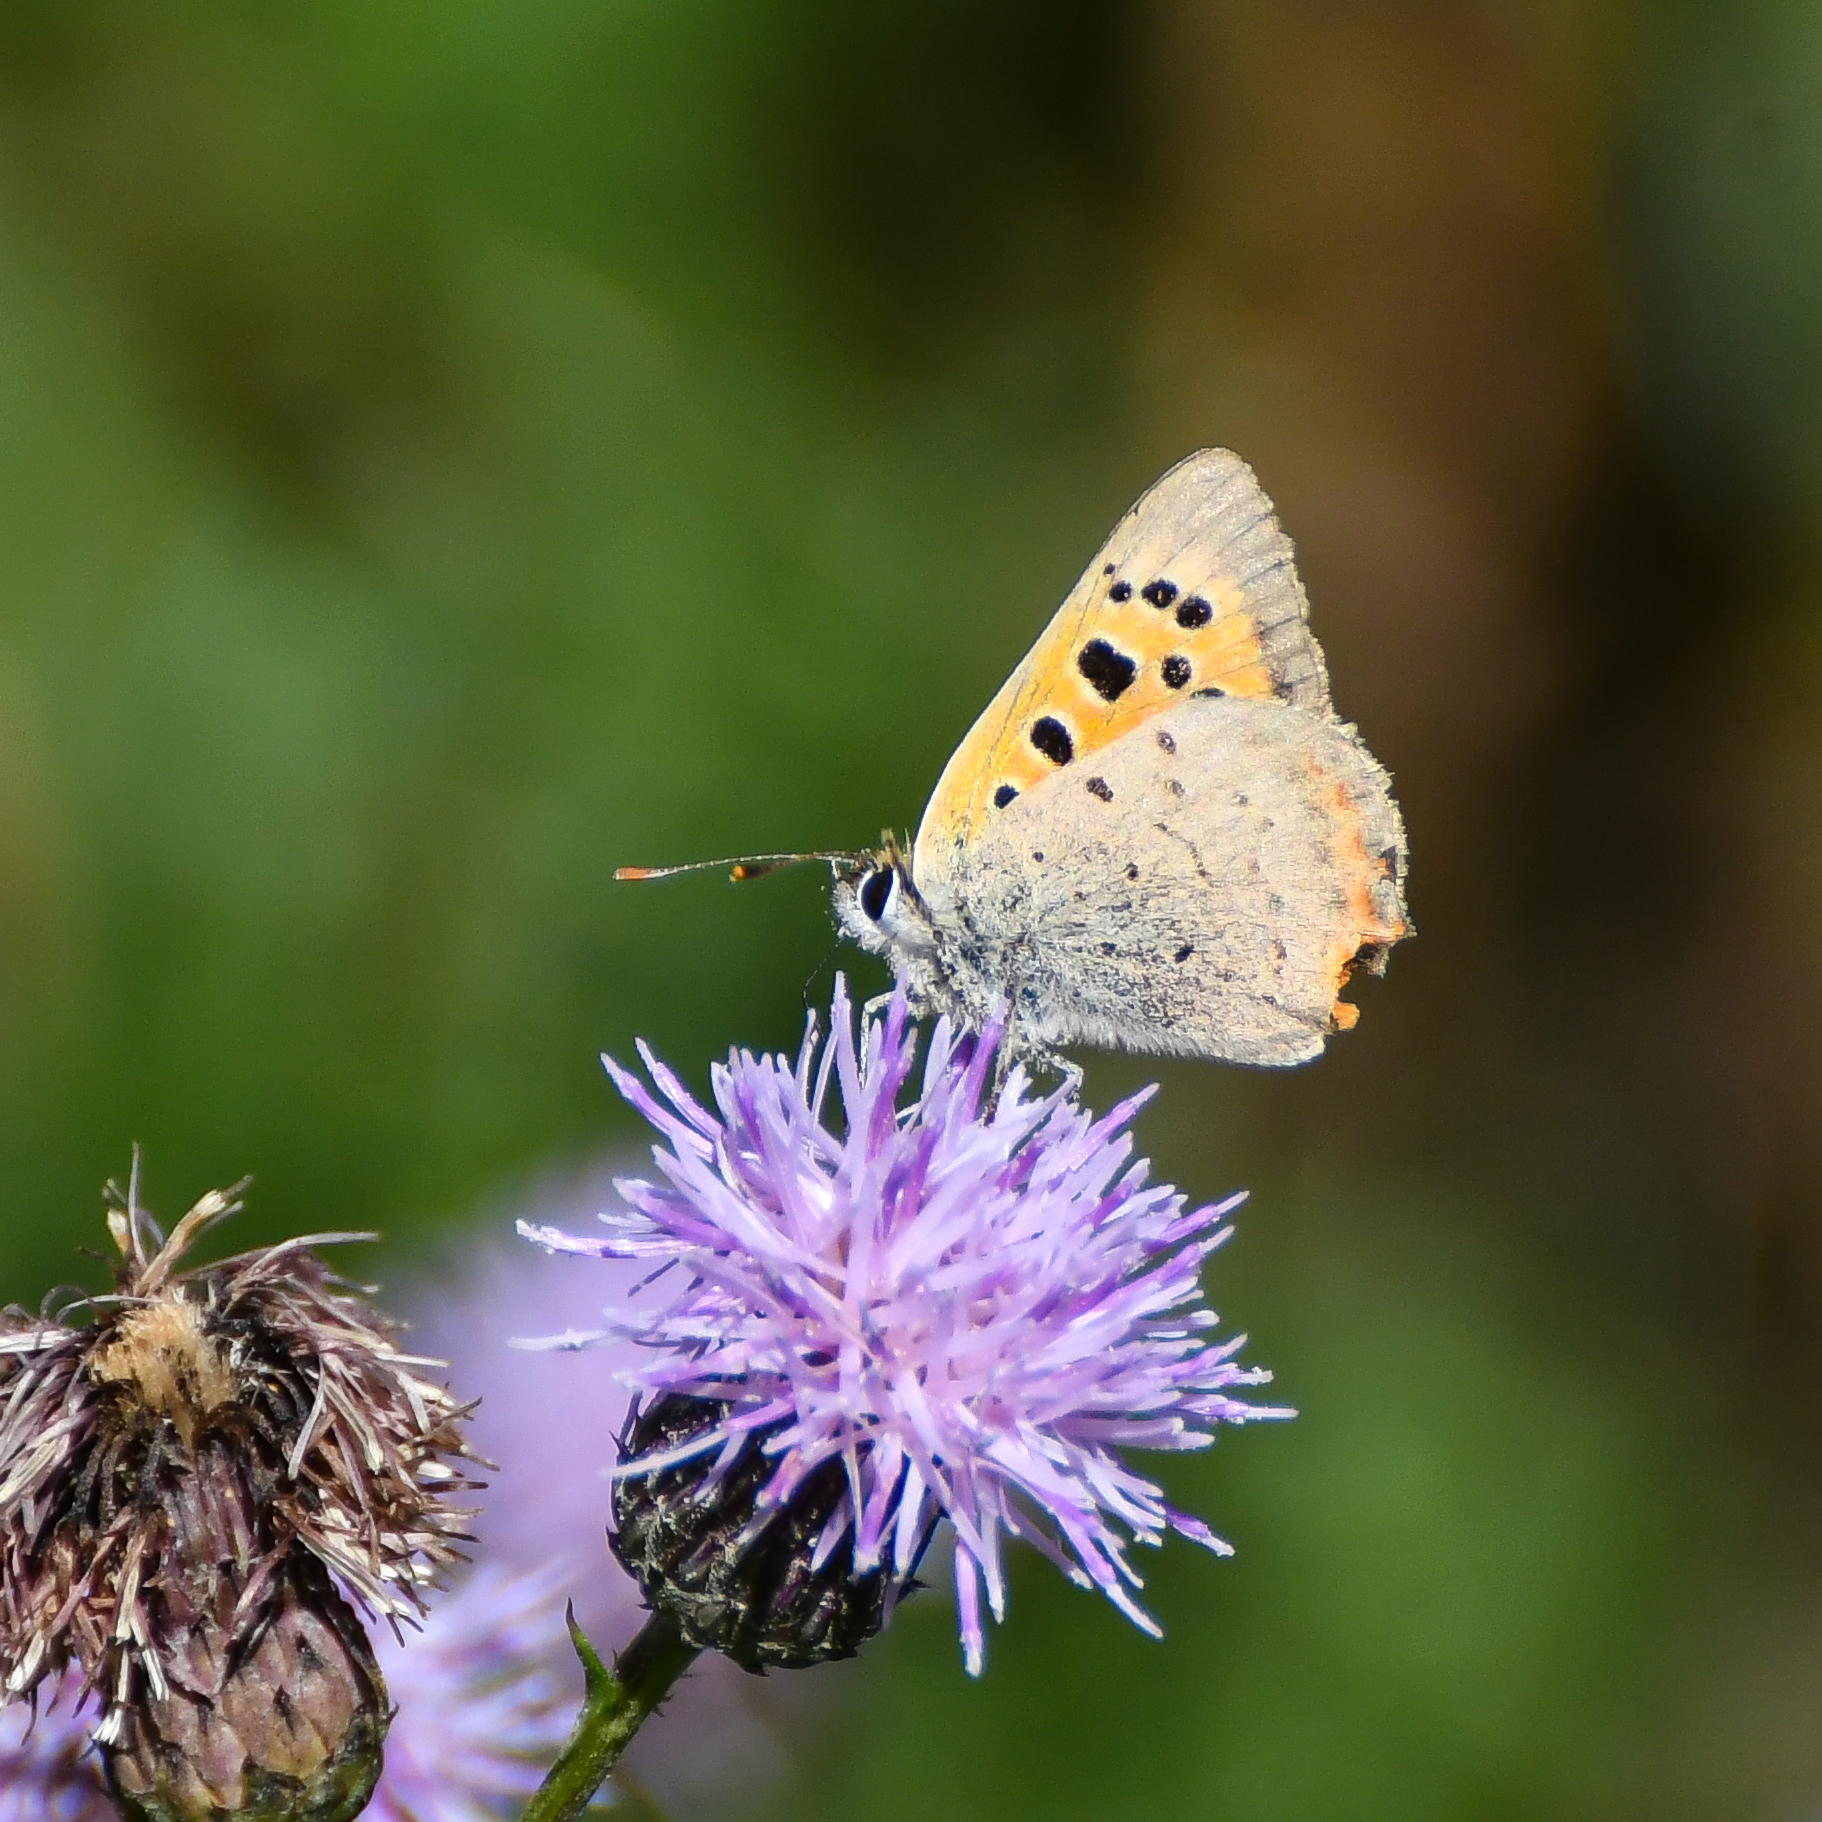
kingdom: Animalia
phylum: Arthropoda
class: Insecta
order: Lepidoptera
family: Lycaenidae
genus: Lycaena
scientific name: Lycaena phlaeas
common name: Small copper
